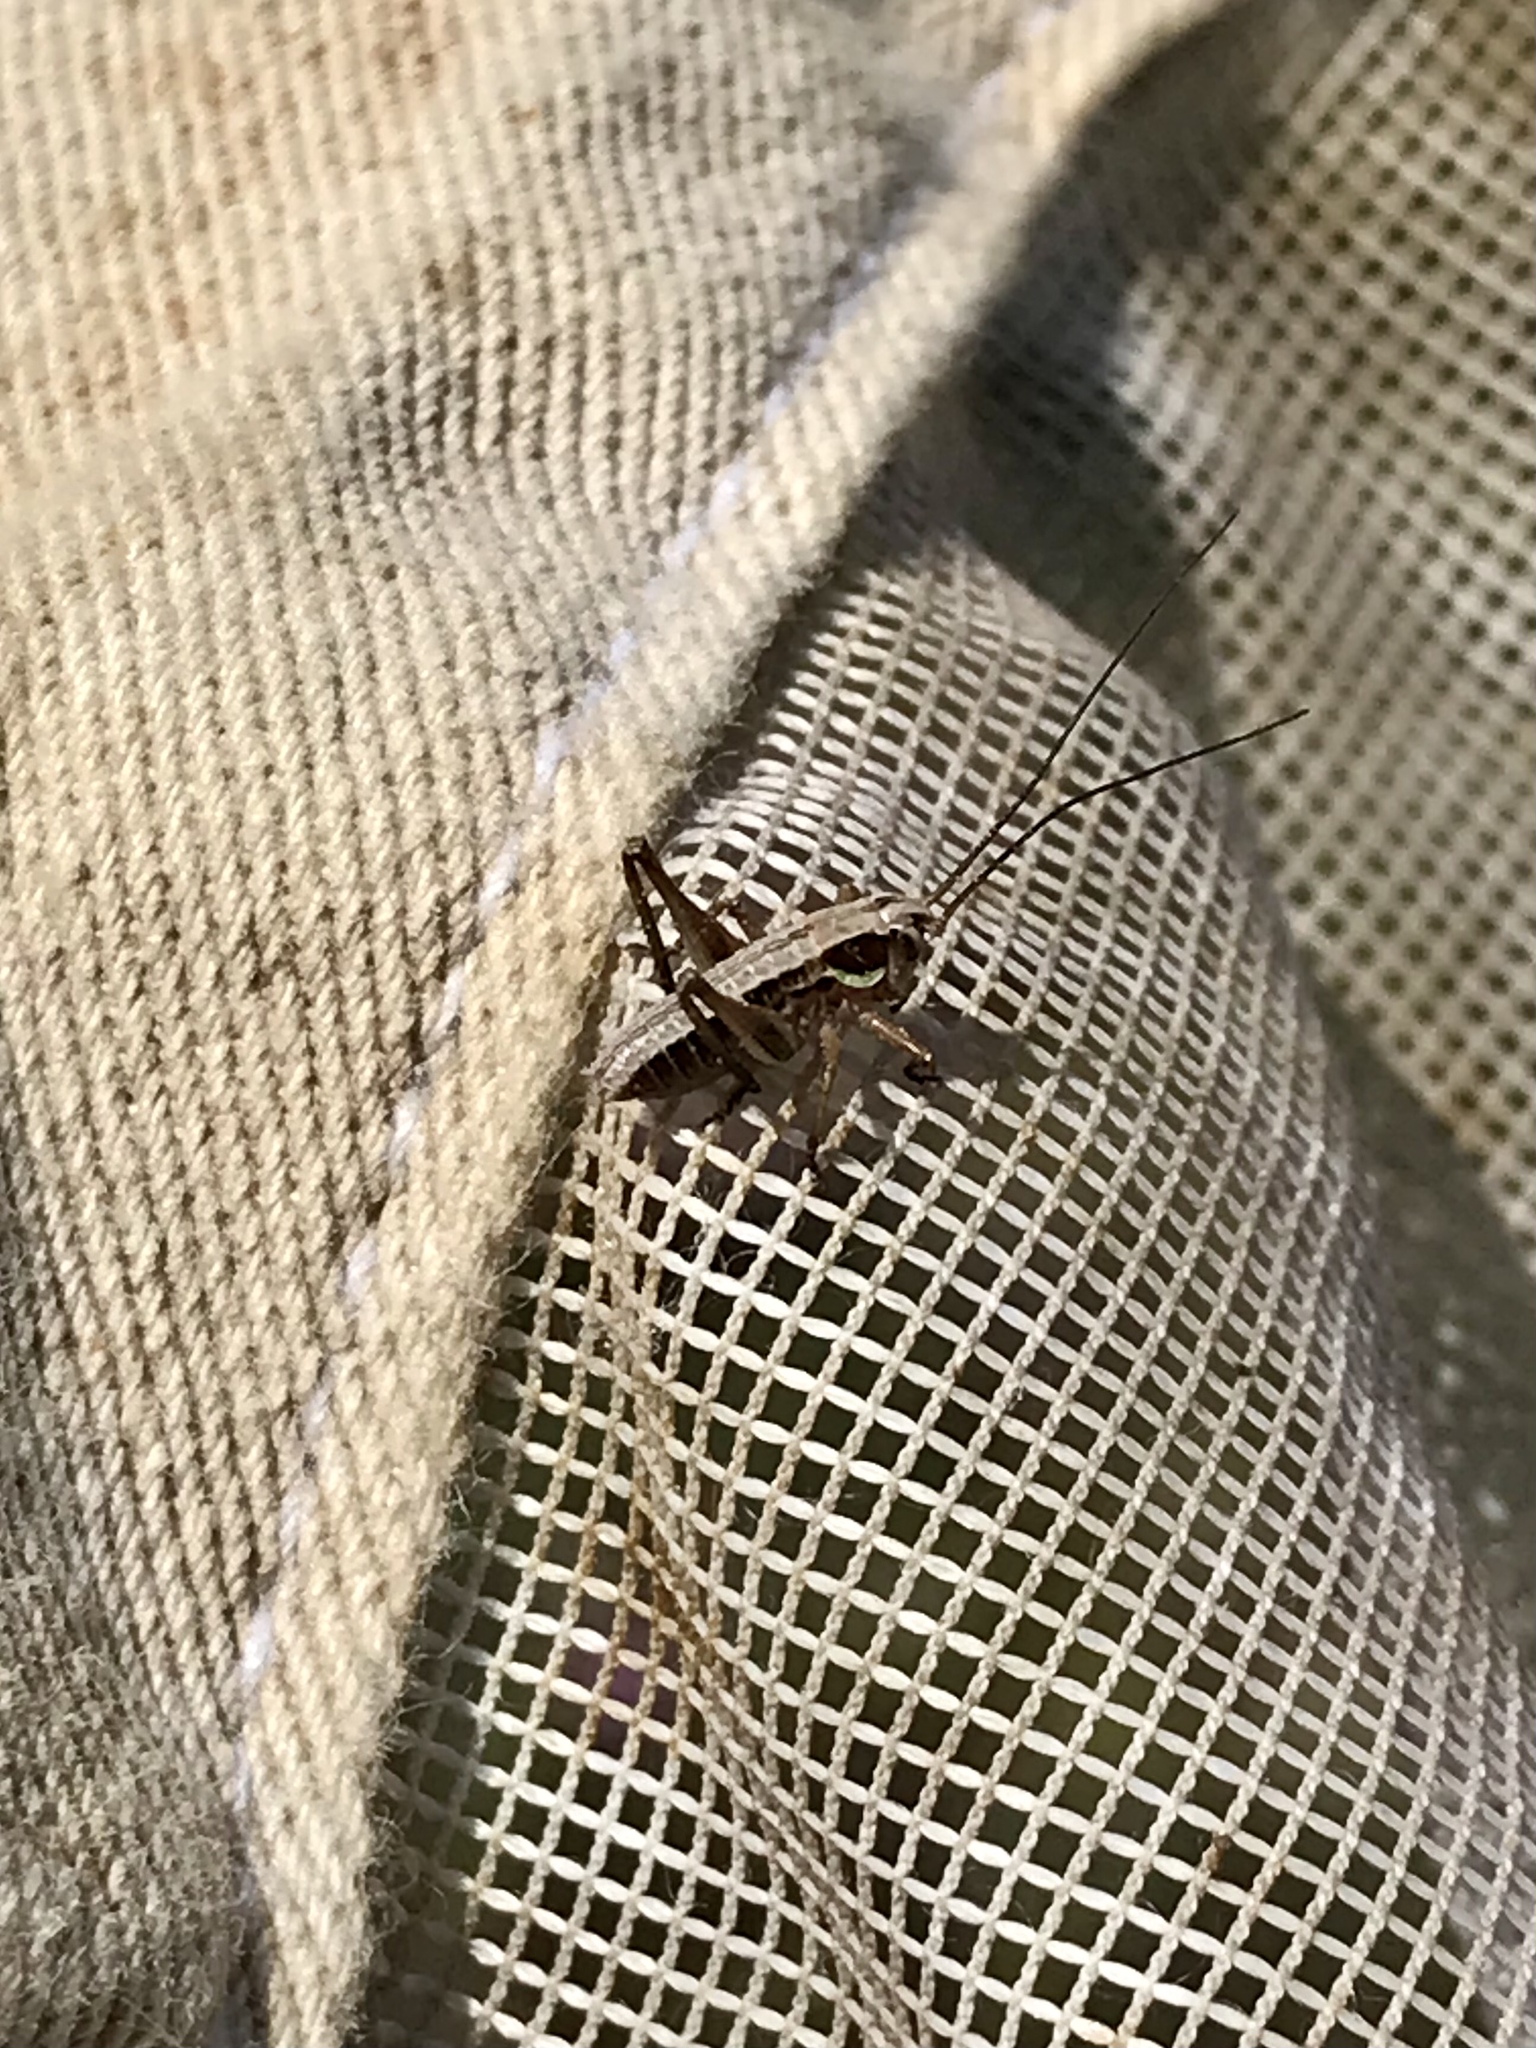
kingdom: Animalia
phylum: Arthropoda
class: Insecta
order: Orthoptera
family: Tettigoniidae
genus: Sphagniana
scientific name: Sphagniana sphagnorum
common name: Bog katydid
